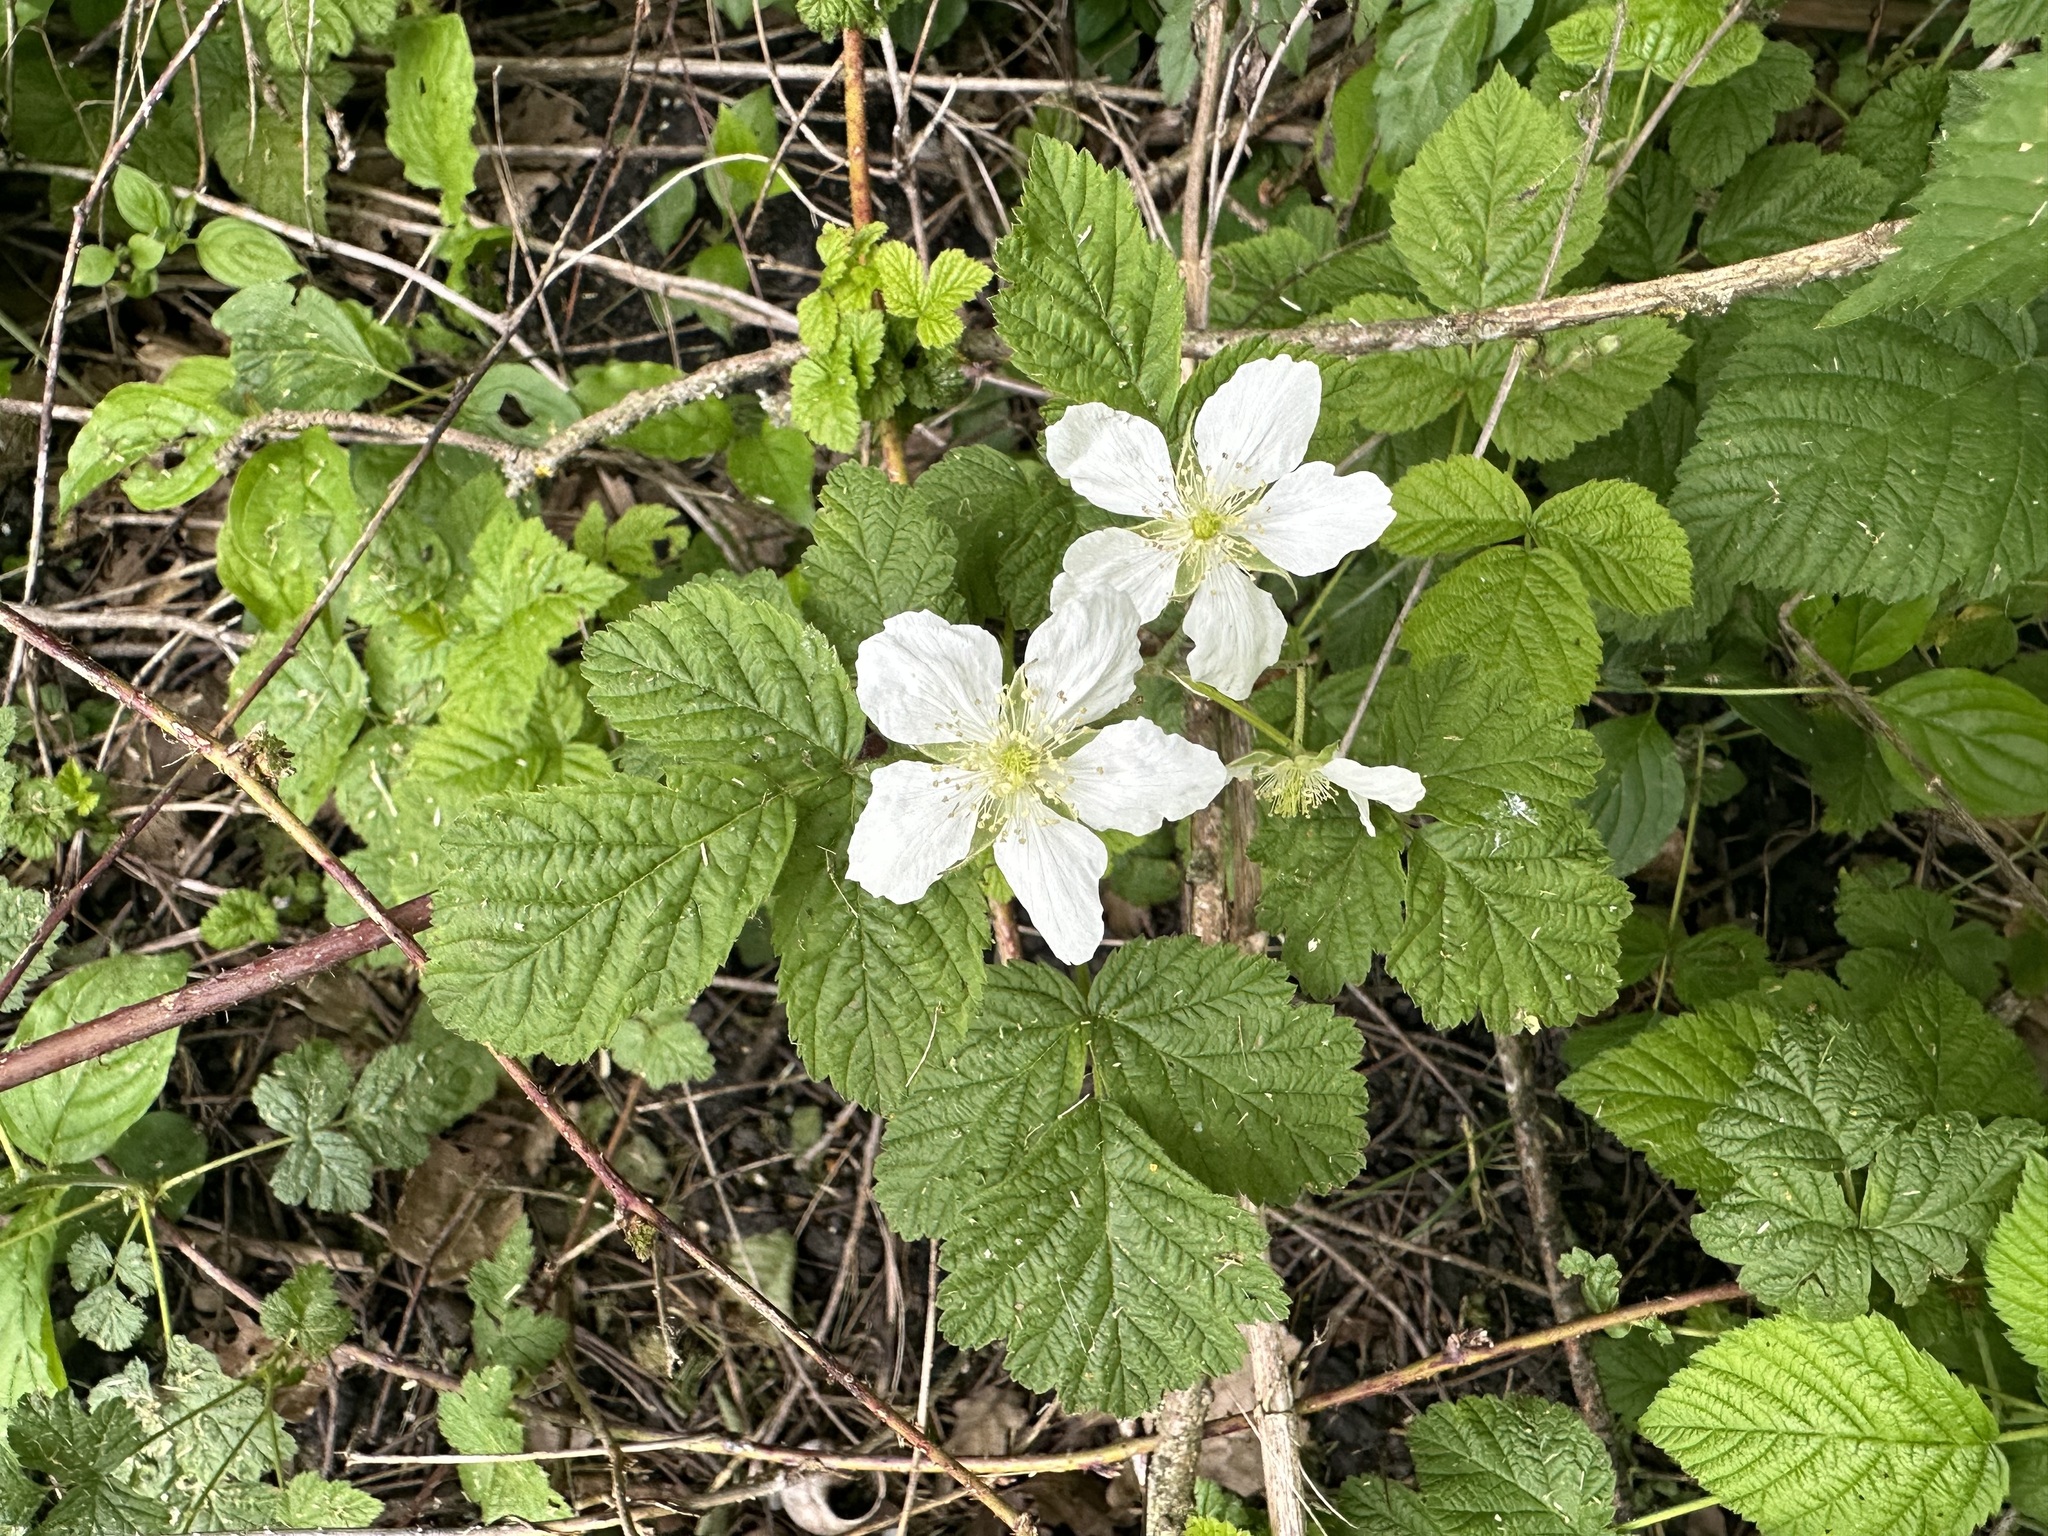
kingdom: Plantae
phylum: Tracheophyta
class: Magnoliopsida
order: Rosales
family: Rosaceae
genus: Rubus
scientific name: Rubus caesius
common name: Dewberry
